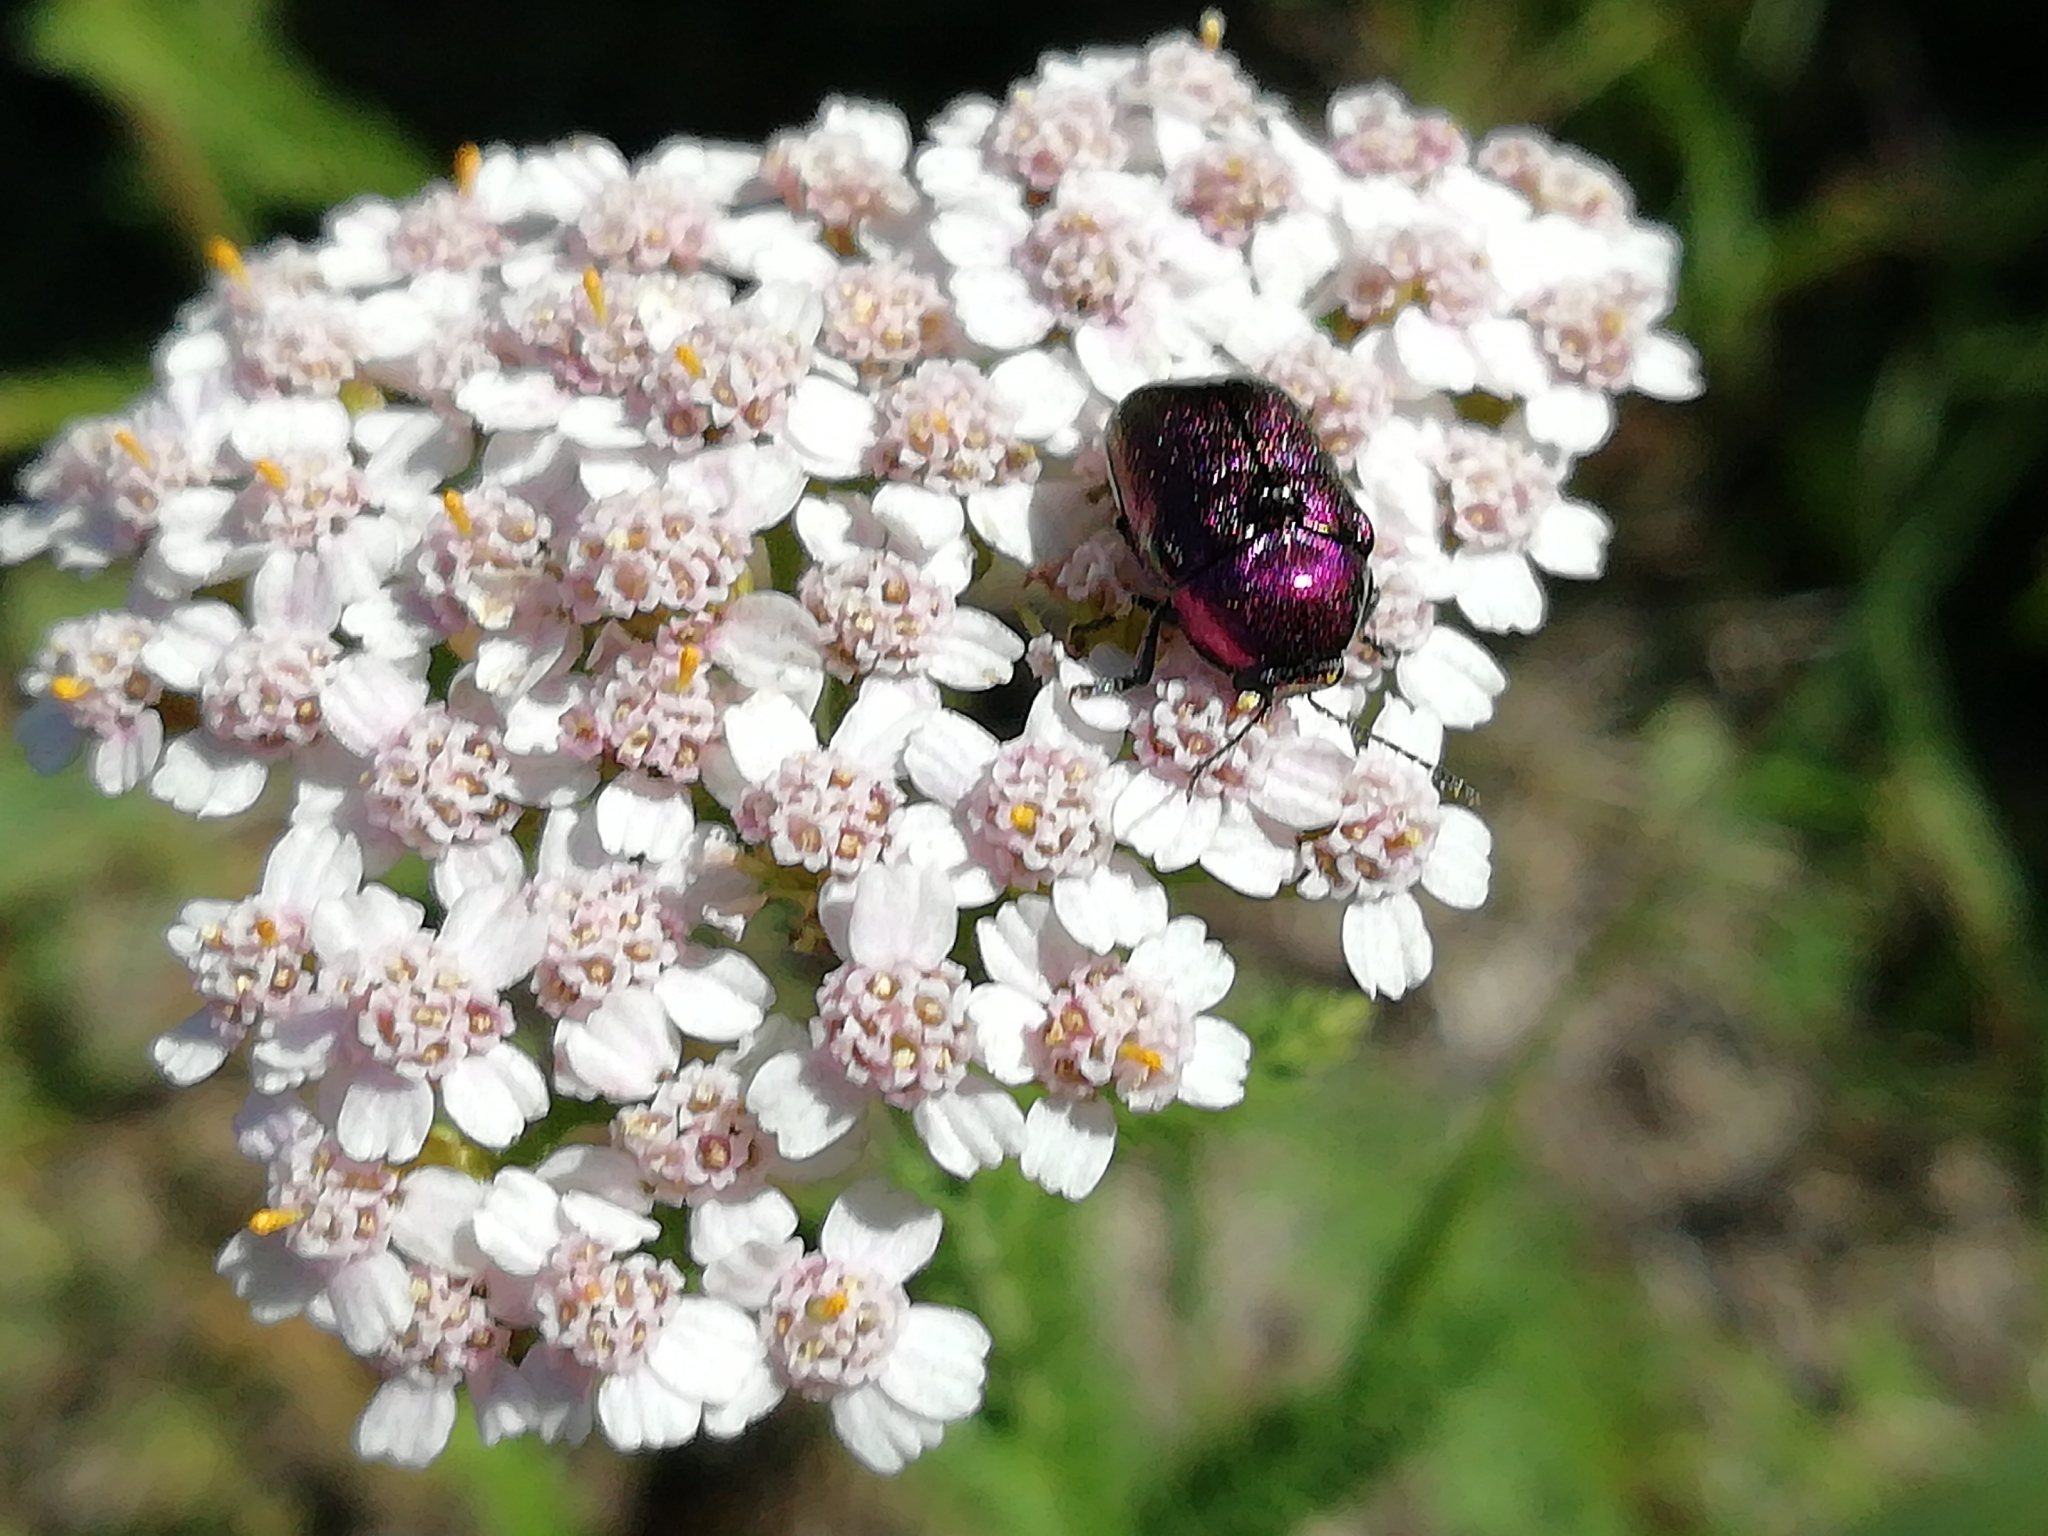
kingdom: Animalia
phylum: Arthropoda
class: Insecta
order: Coleoptera
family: Chrysomelidae
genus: Cryptocephalus
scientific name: Cryptocephalus sericeus
